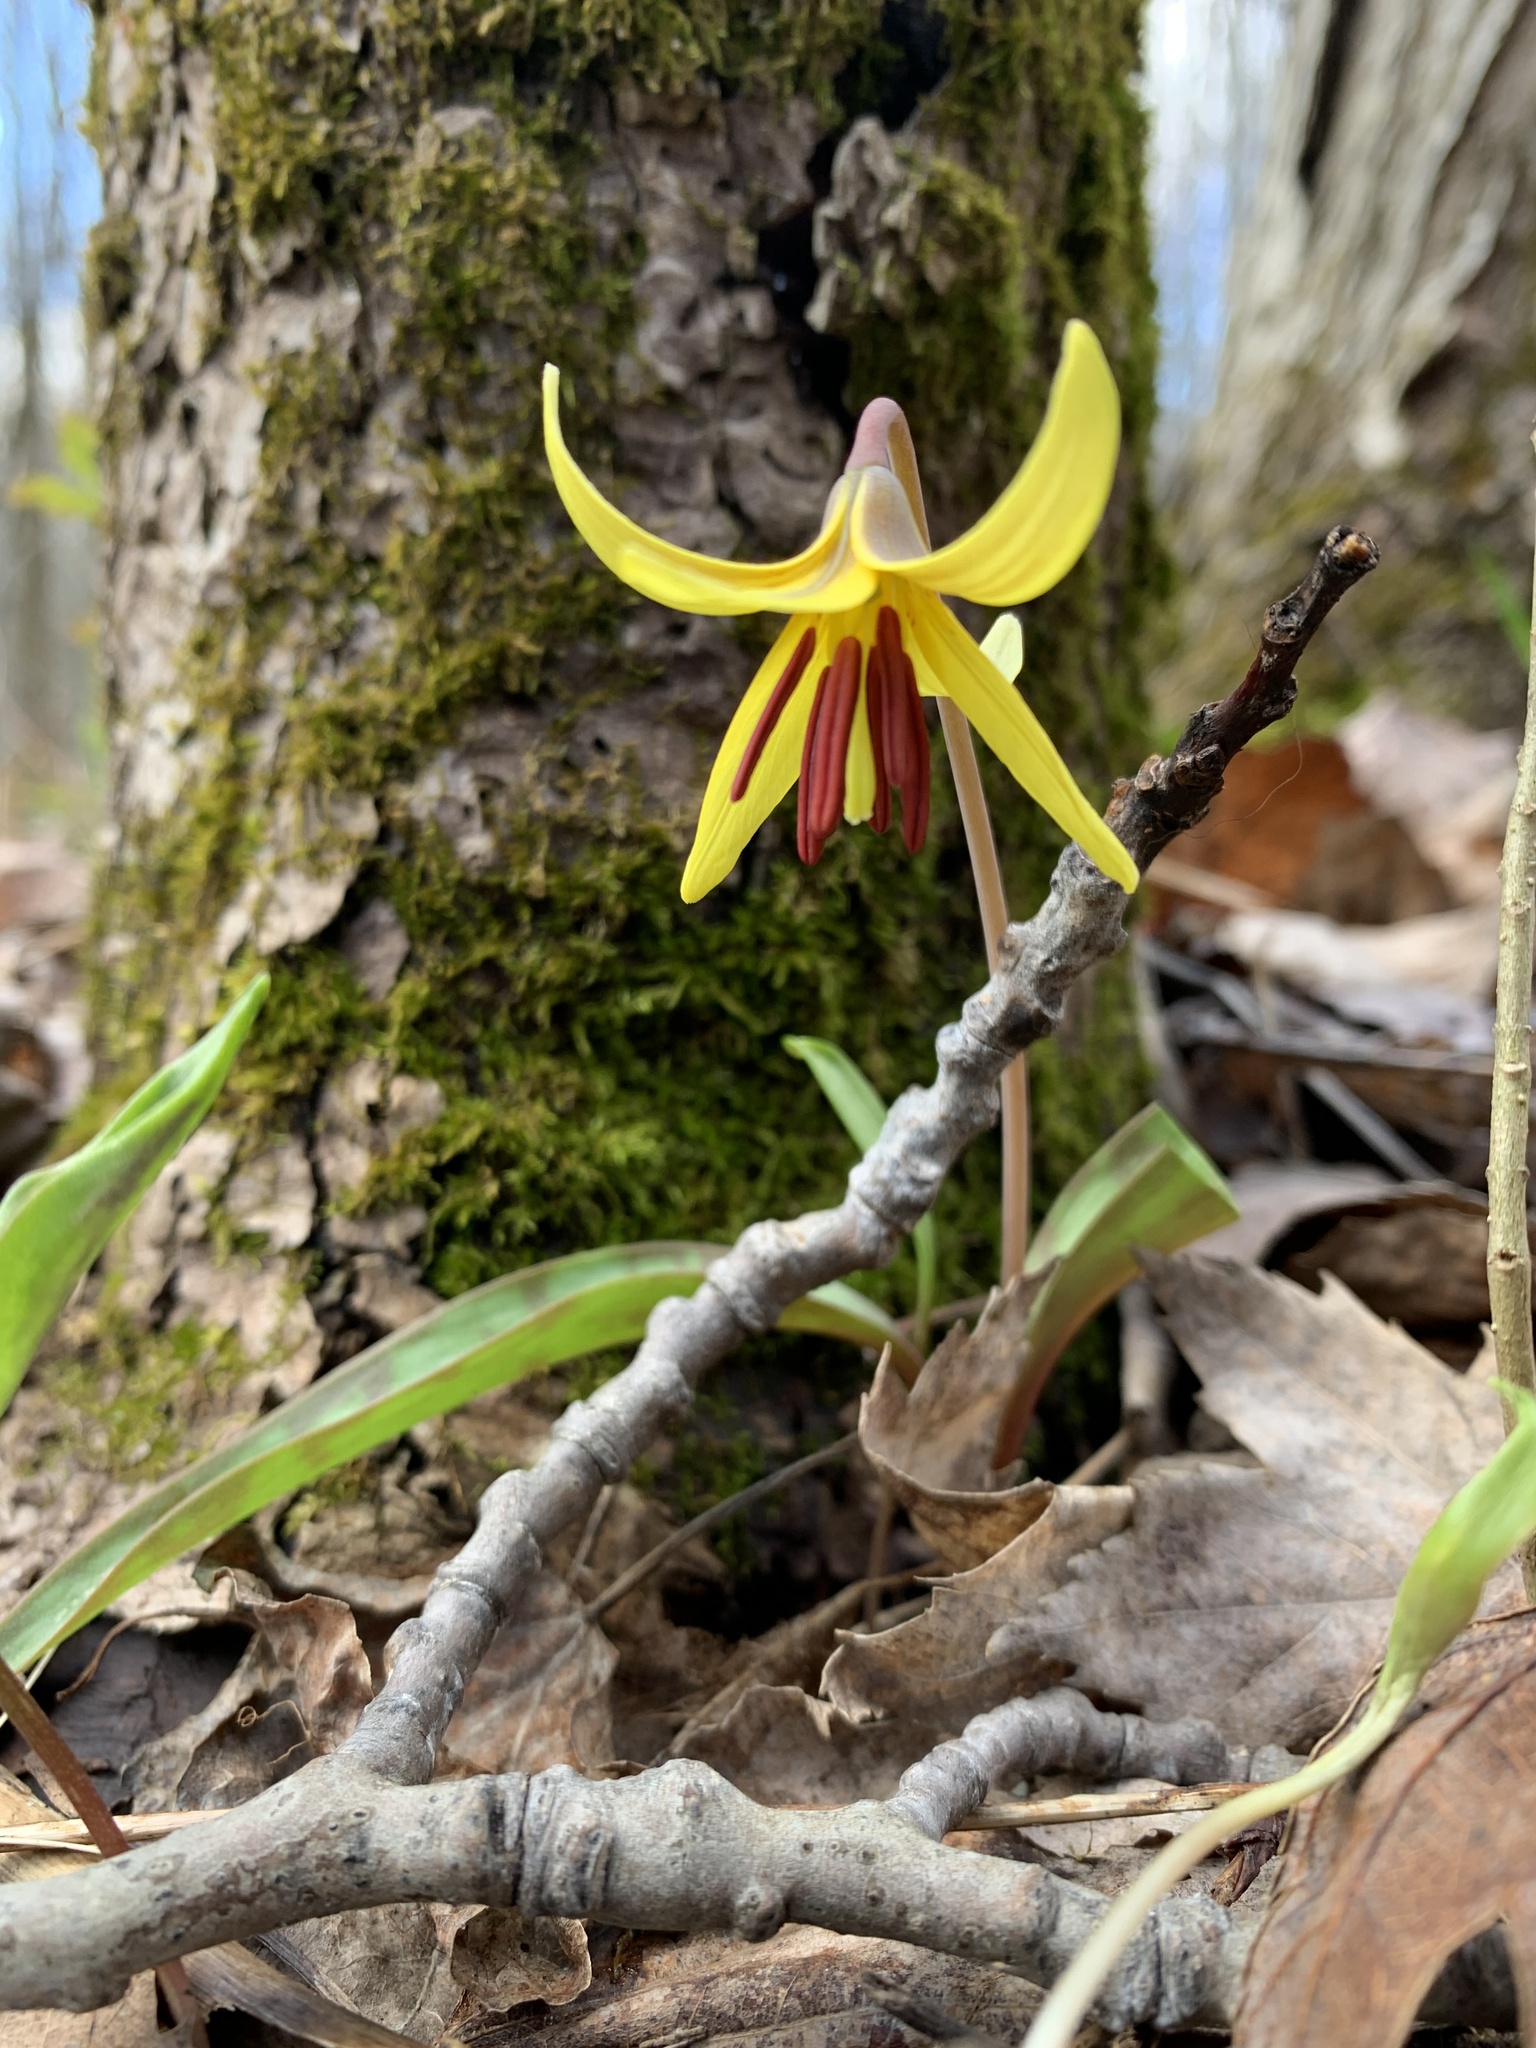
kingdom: Plantae
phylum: Tracheophyta
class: Liliopsida
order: Liliales
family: Liliaceae
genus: Erythronium
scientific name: Erythronium americanum
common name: Yellow adder's-tongue
